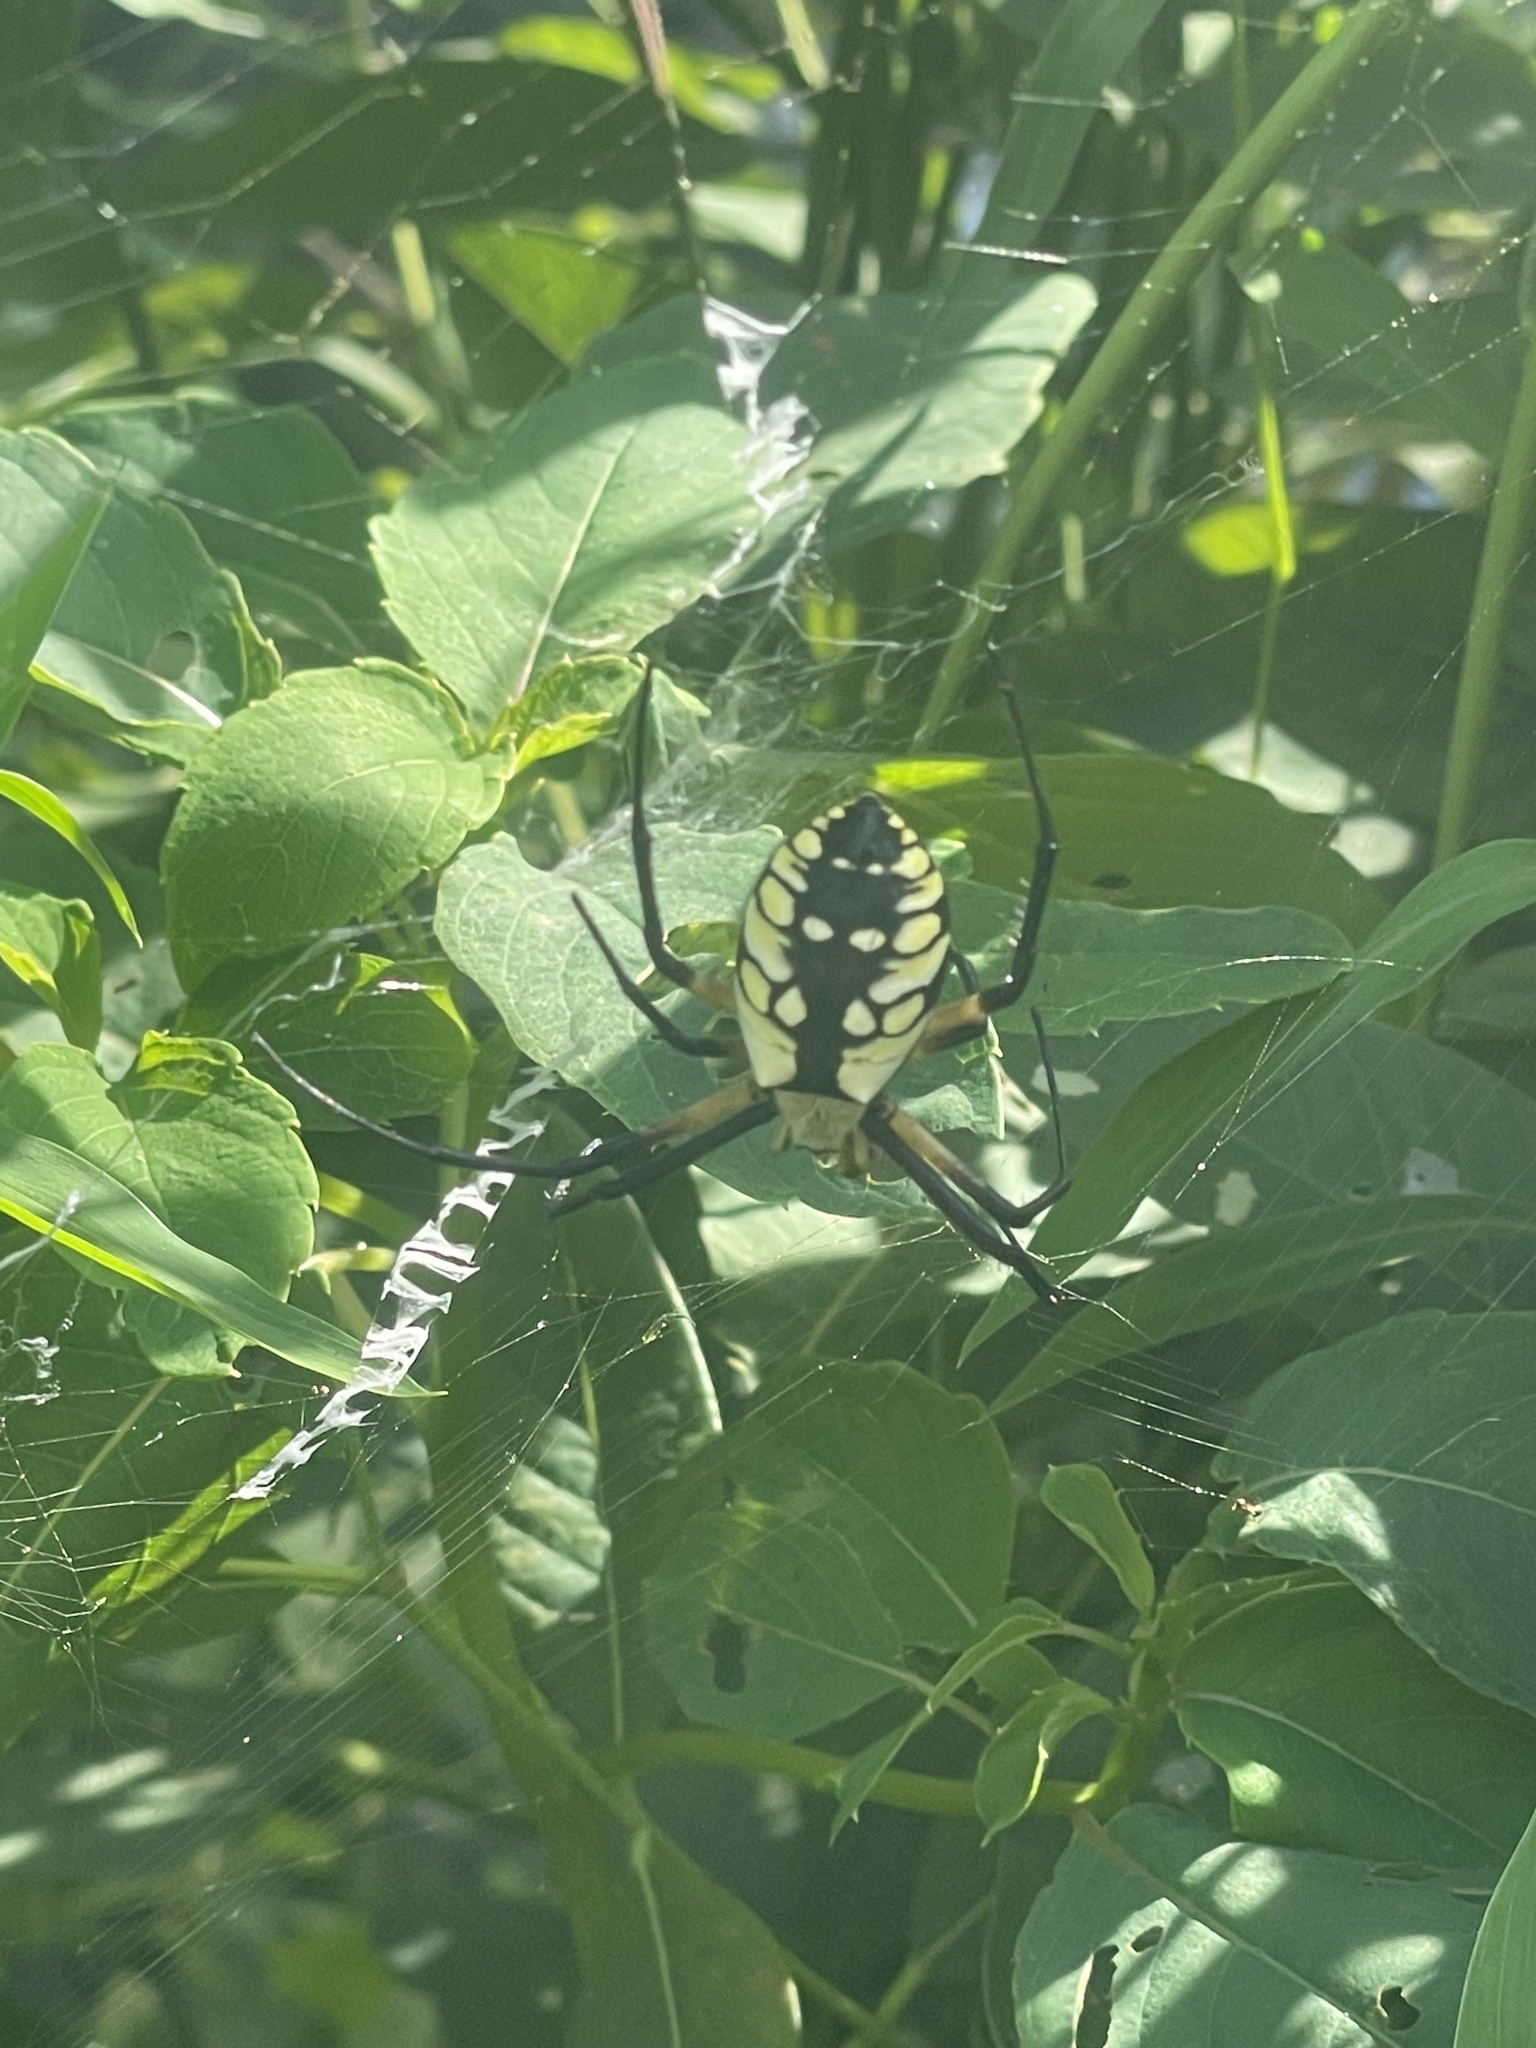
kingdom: Animalia
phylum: Arthropoda
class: Arachnida
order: Araneae
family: Araneidae
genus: Argiope
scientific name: Argiope aurantia
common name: Orb weavers
